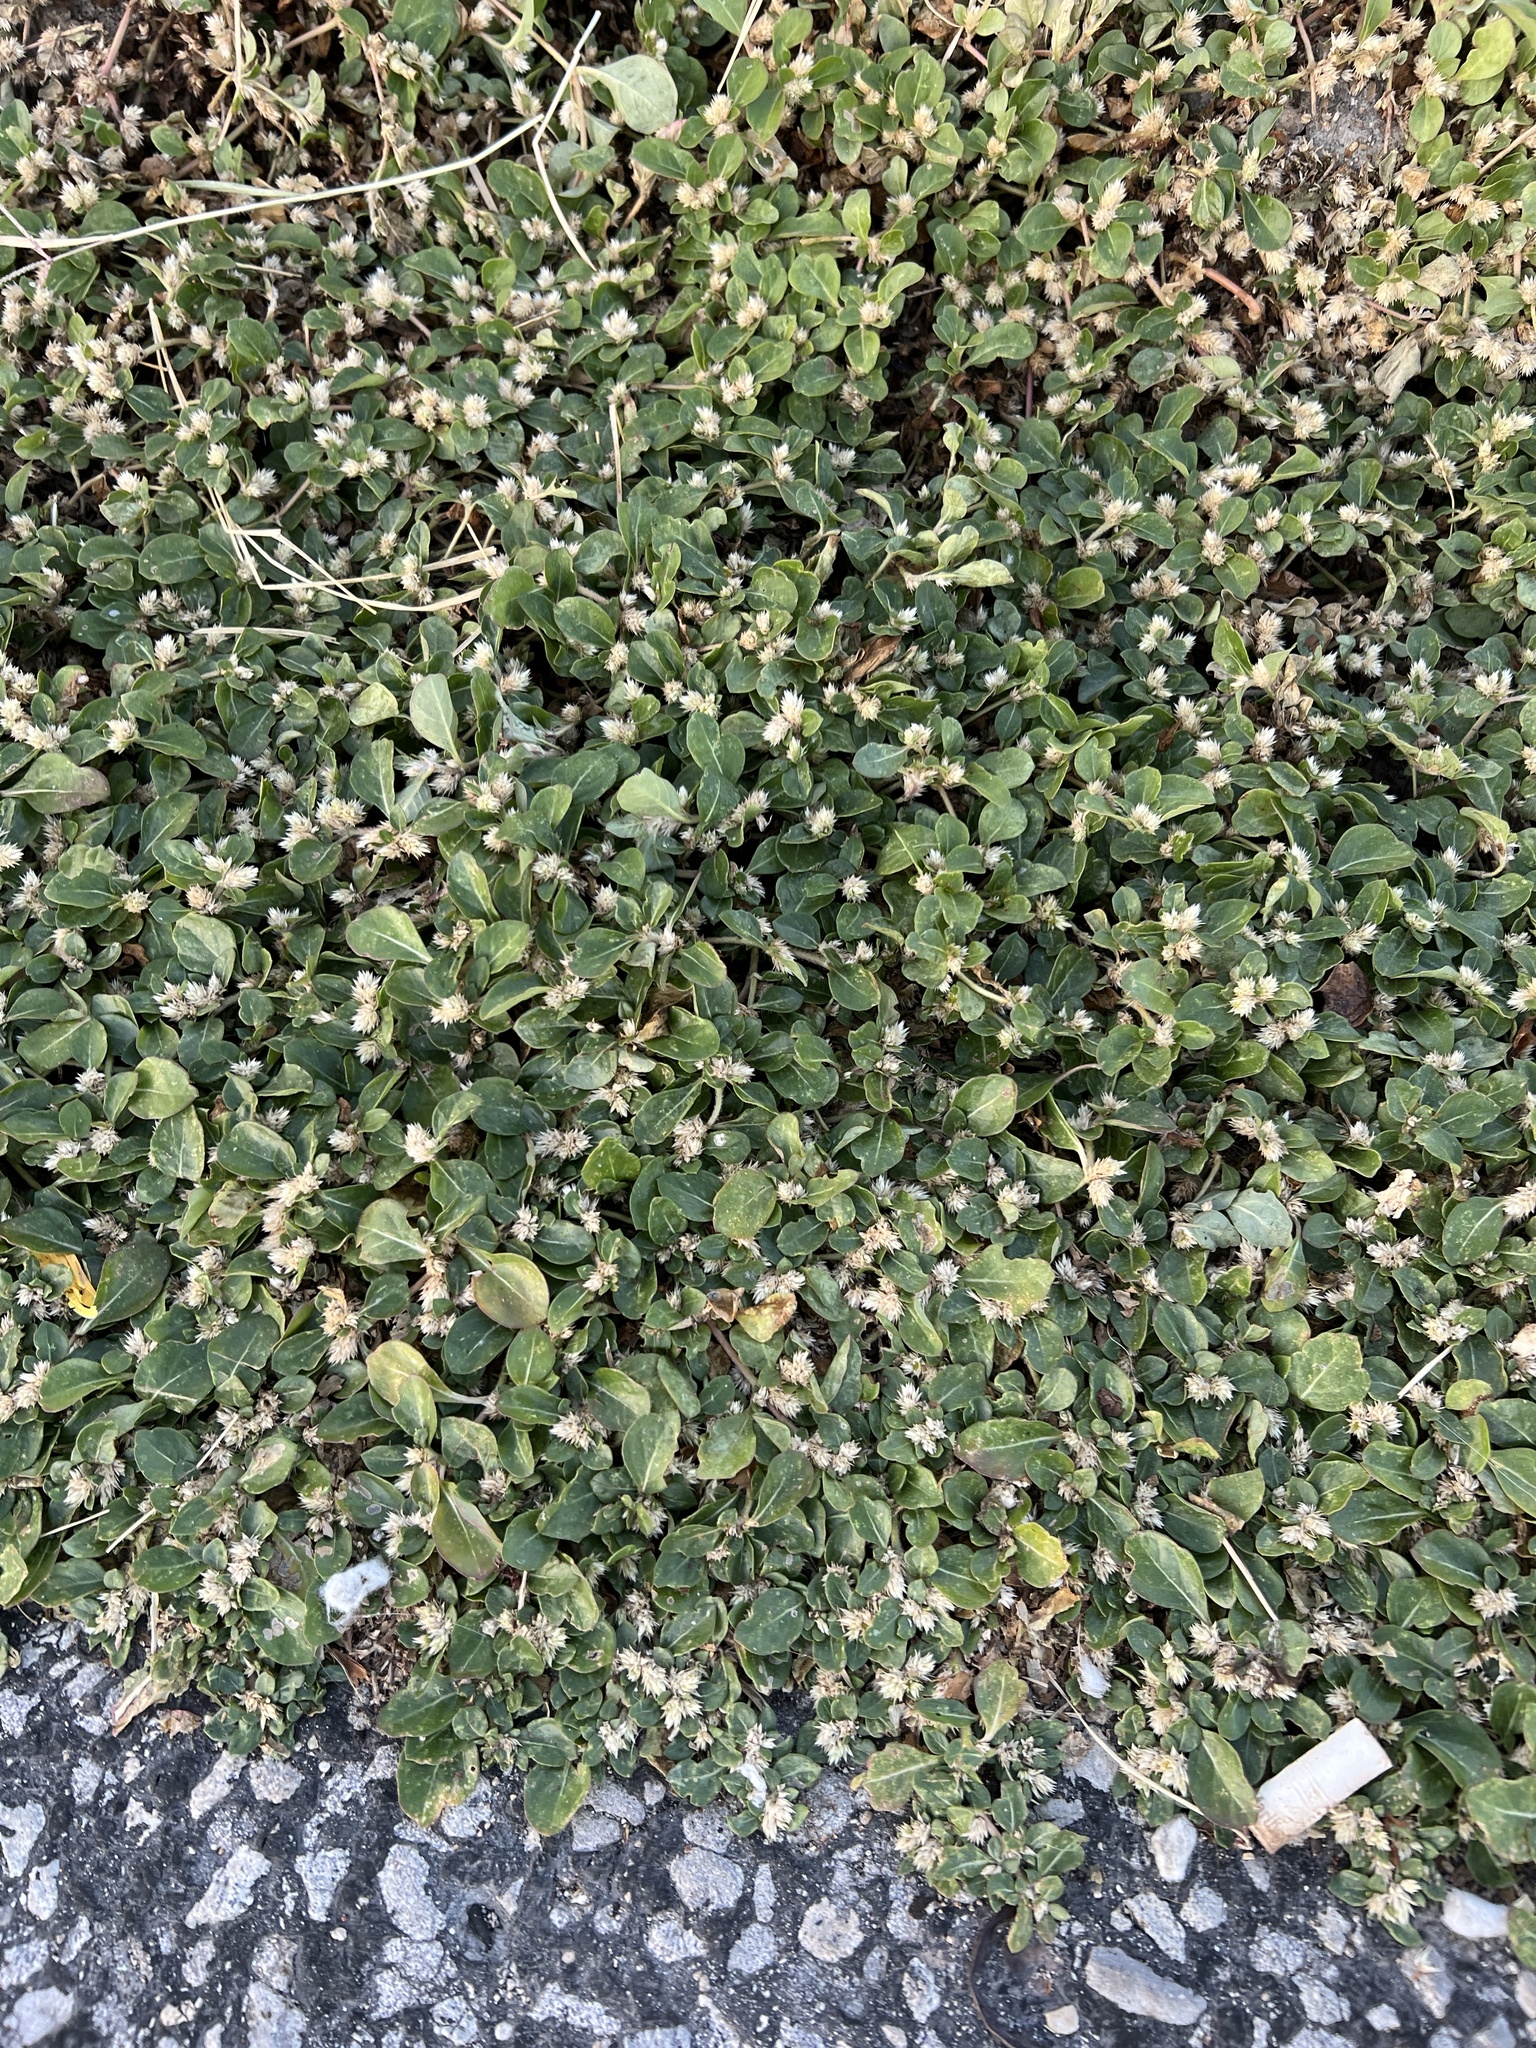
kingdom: Plantae
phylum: Tracheophyta
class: Magnoliopsida
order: Caryophyllales
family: Amaranthaceae
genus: Alternanthera
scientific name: Alternanthera caracasana
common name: Washerwoman
